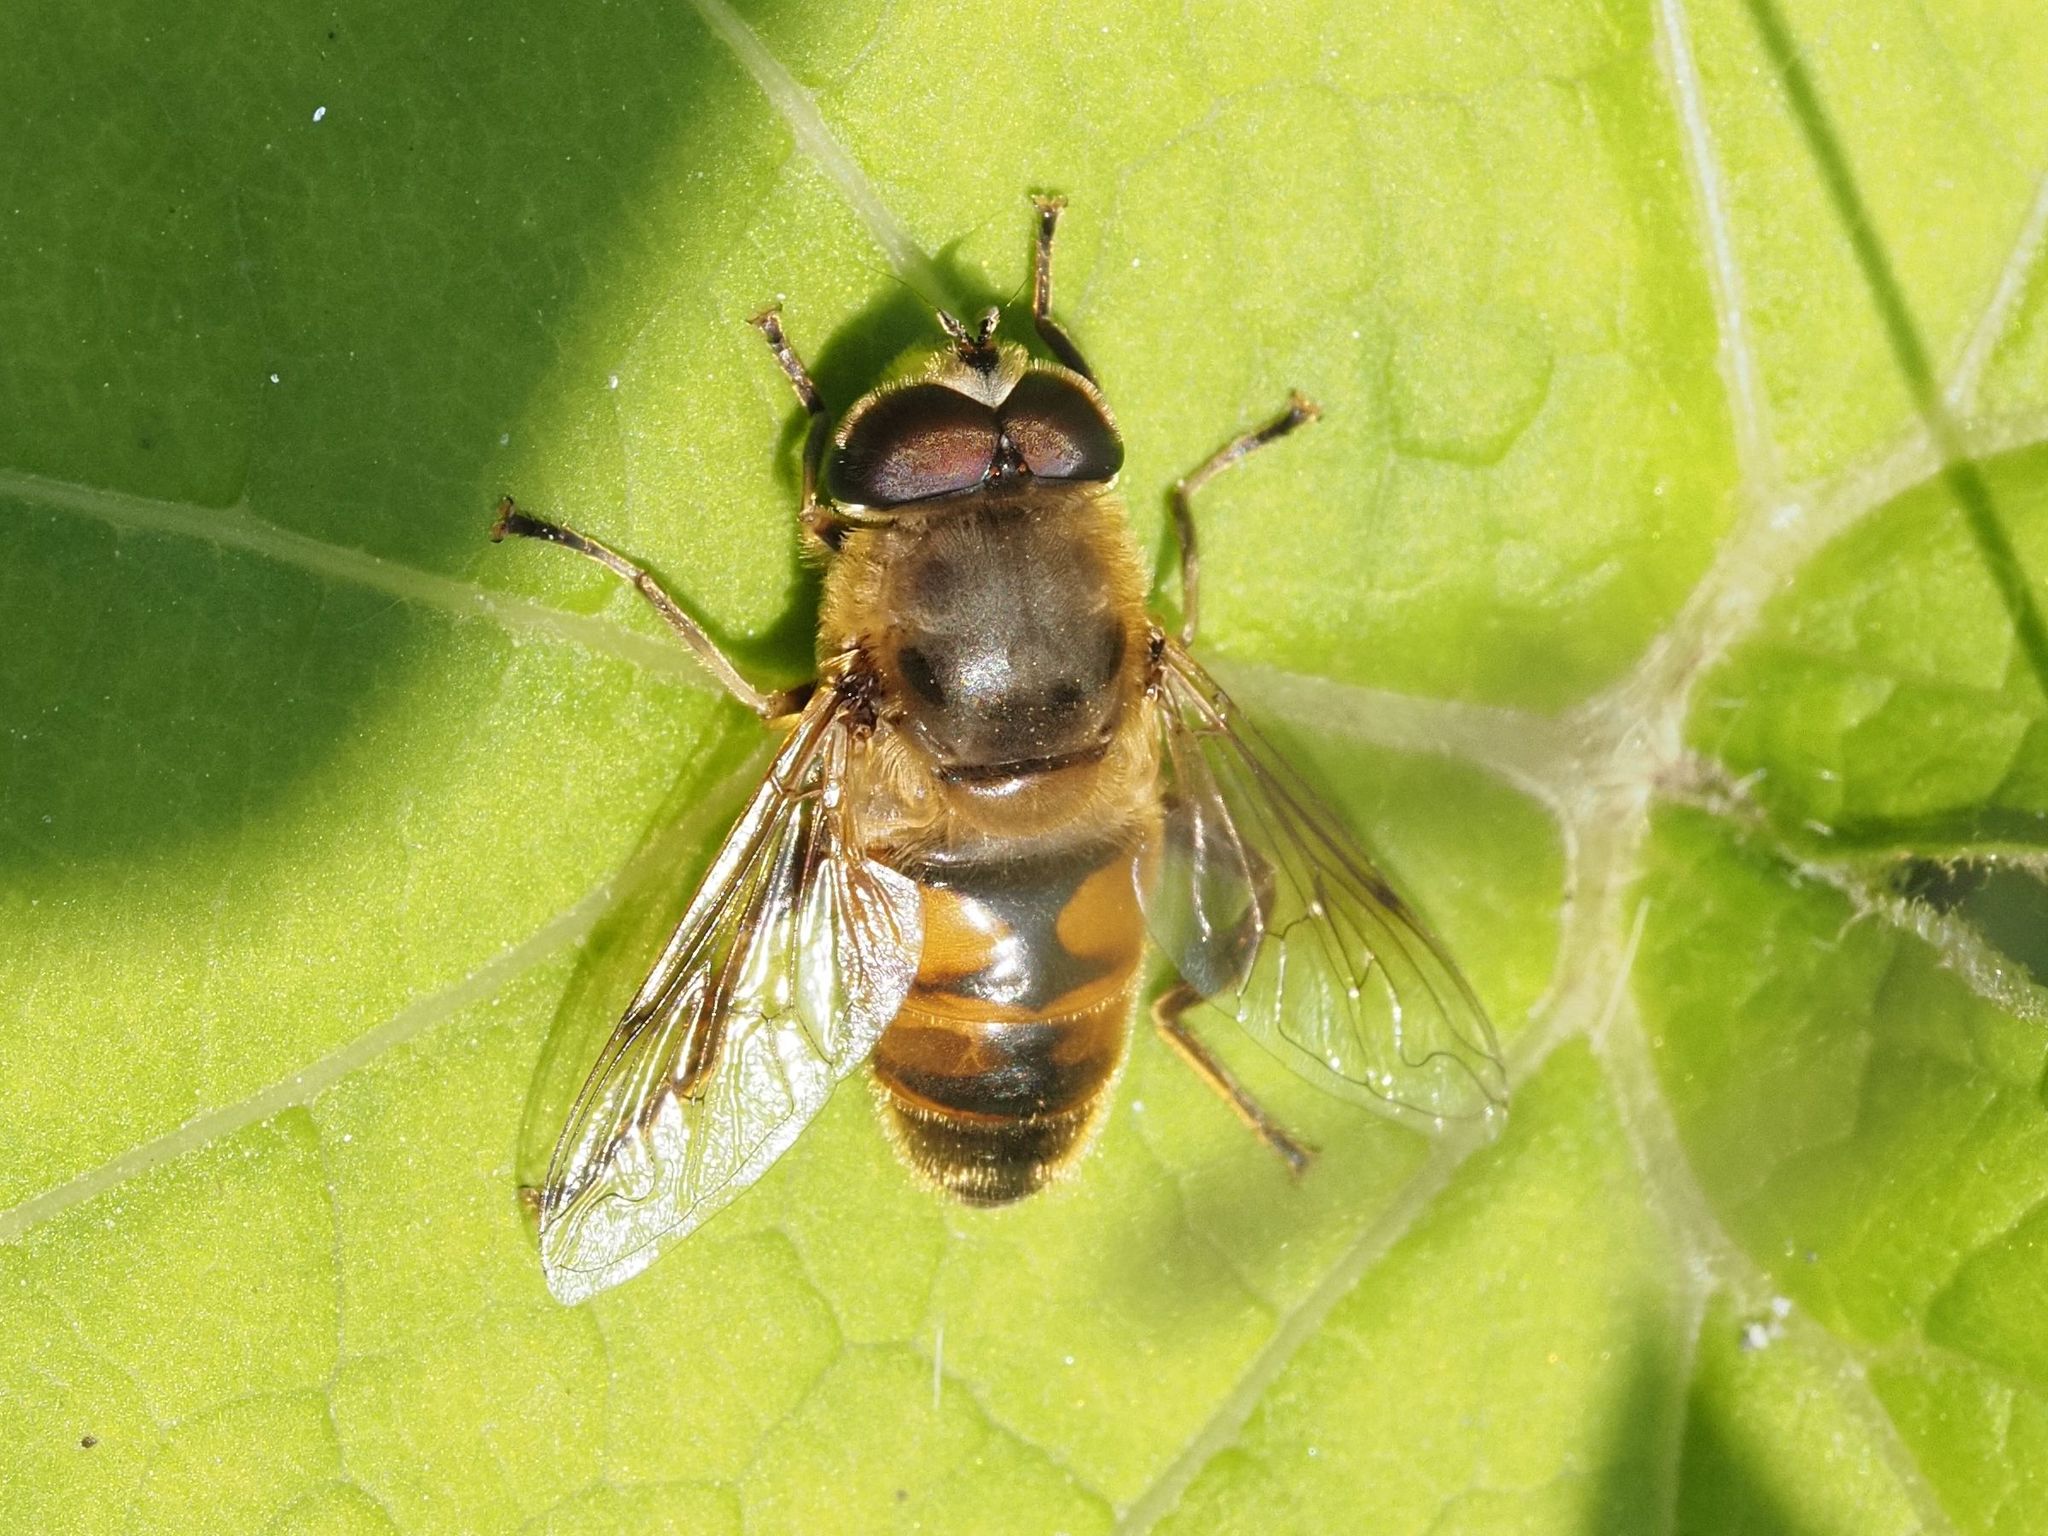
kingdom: Animalia
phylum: Arthropoda
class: Insecta
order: Diptera
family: Syrphidae
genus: Eristalis
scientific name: Eristalis tenax
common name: Drone fly
